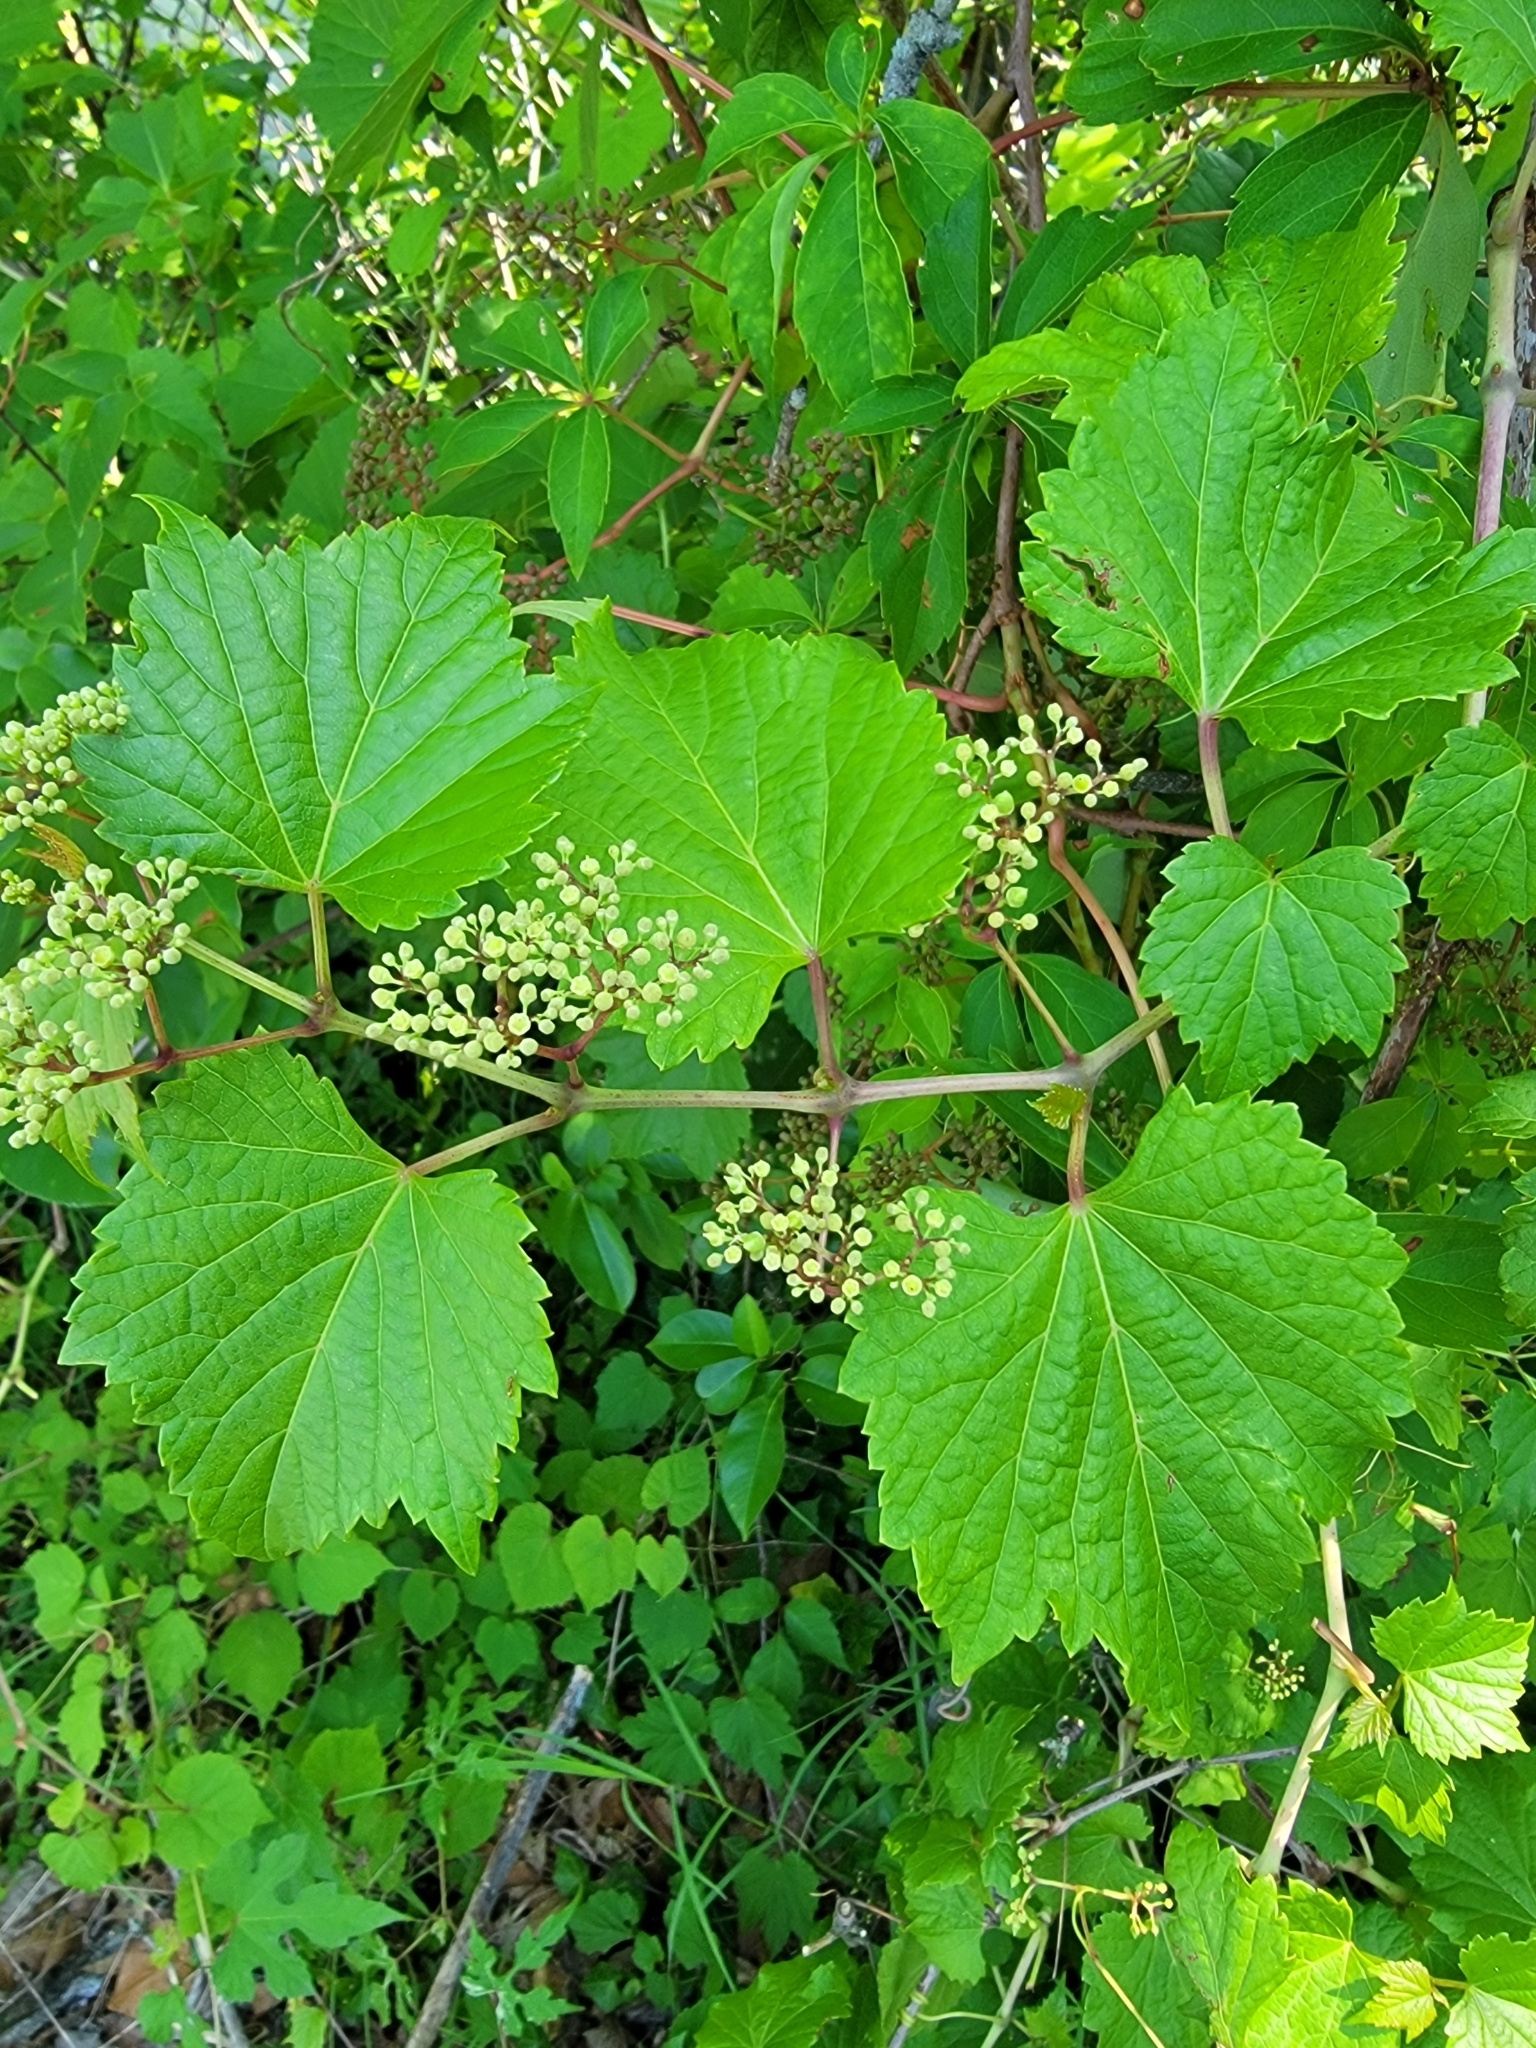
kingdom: Plantae
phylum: Tracheophyta
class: Magnoliopsida
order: Vitales
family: Vitaceae
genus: Ampelopsis
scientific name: Ampelopsis glandulosa
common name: Amur peppervine
